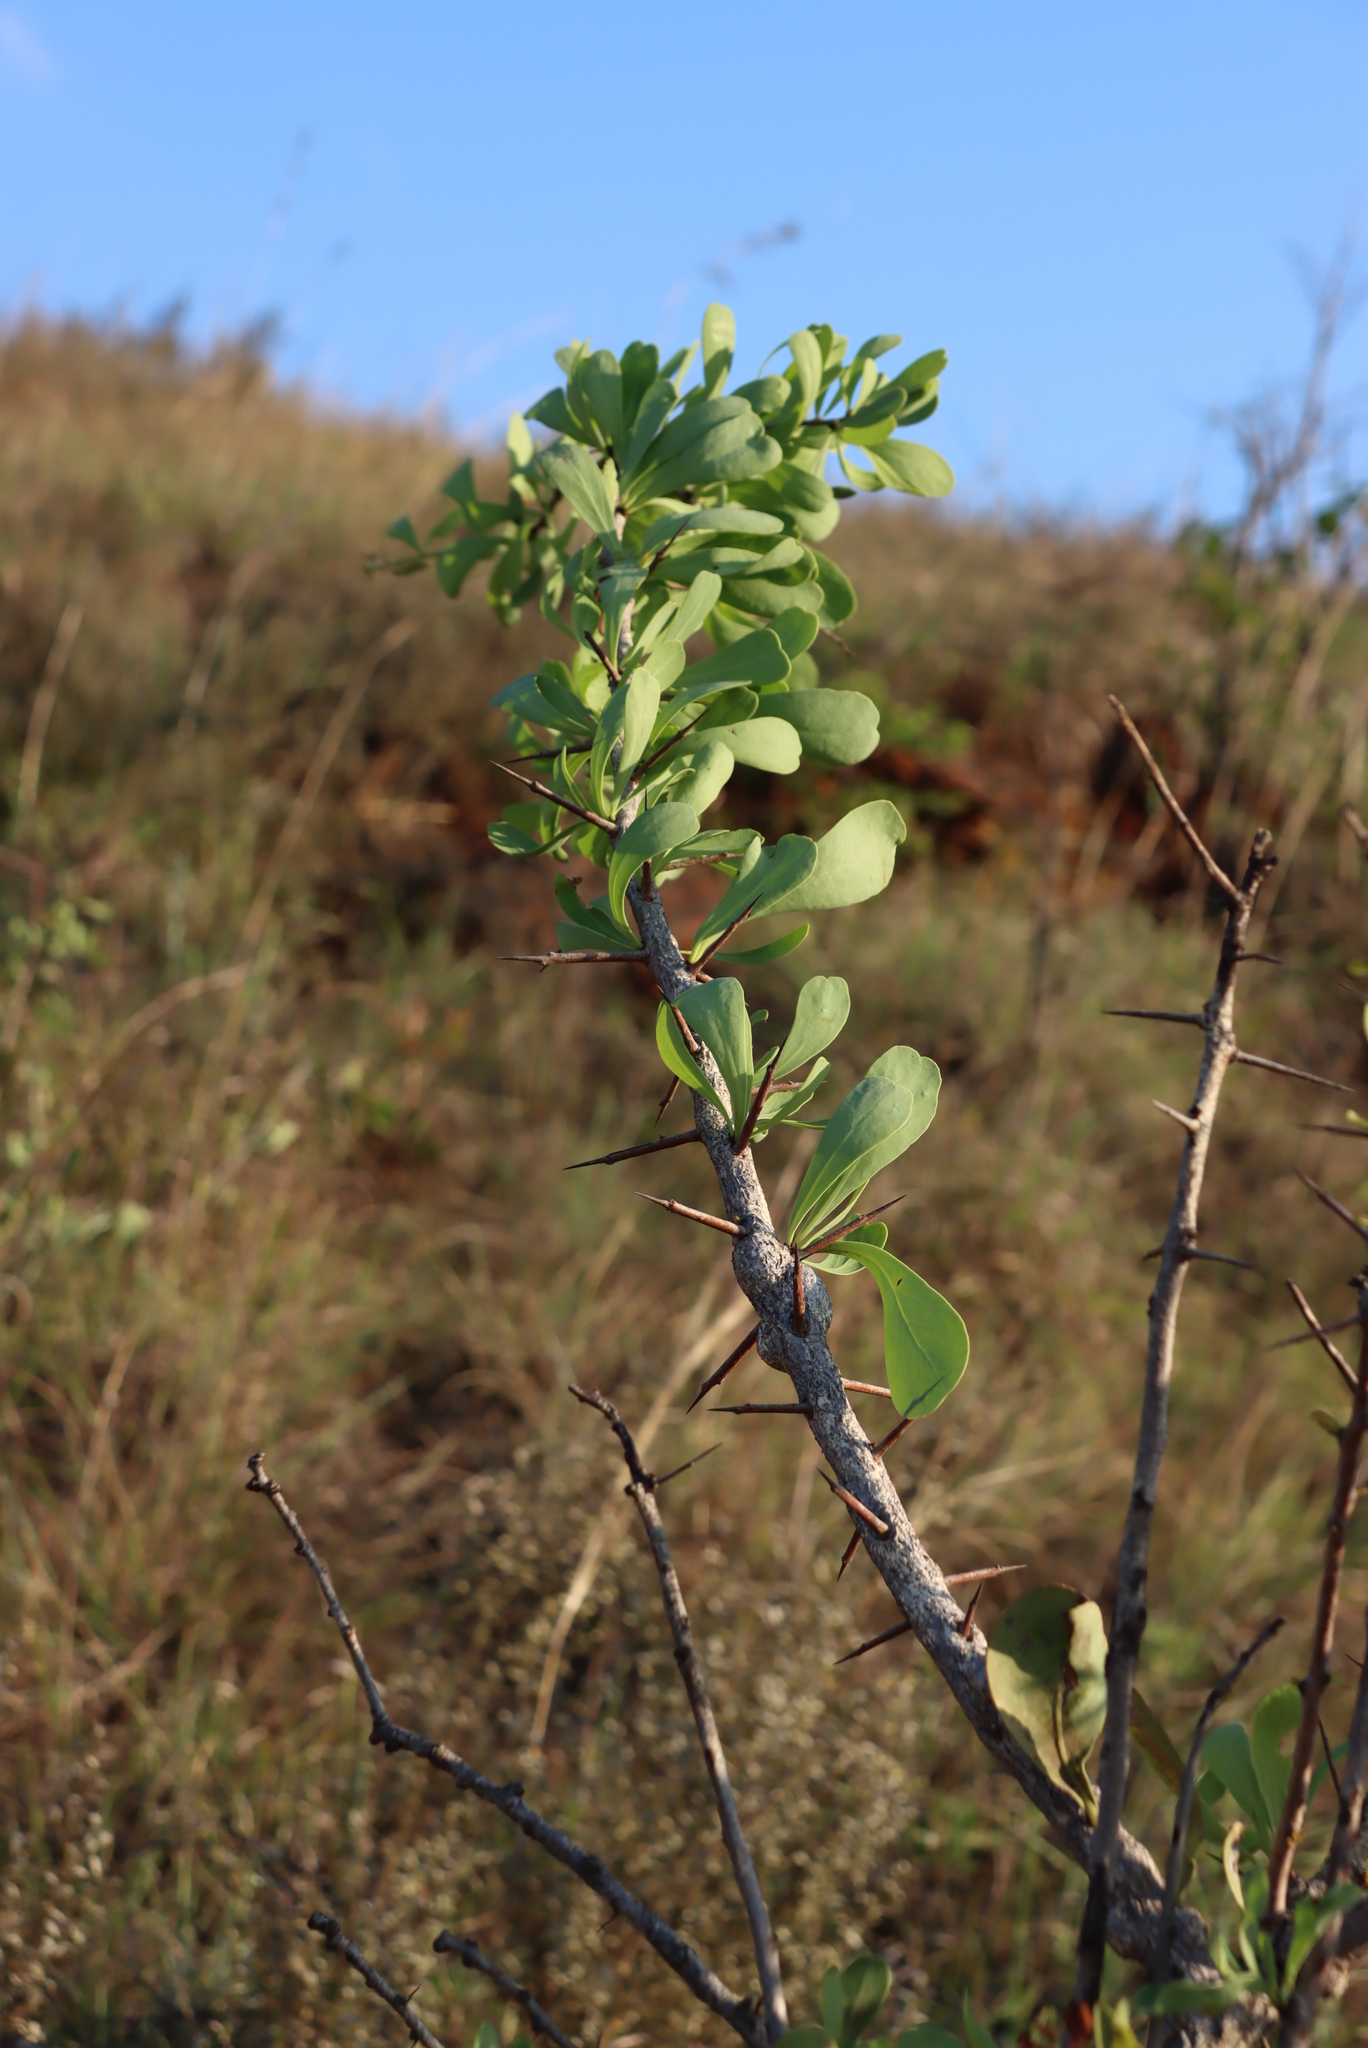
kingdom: Plantae
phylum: Tracheophyta
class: Magnoliopsida
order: Celastrales
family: Celastraceae
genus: Gymnosporia
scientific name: Gymnosporia glaucophylla
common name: Blue spike-thorn
